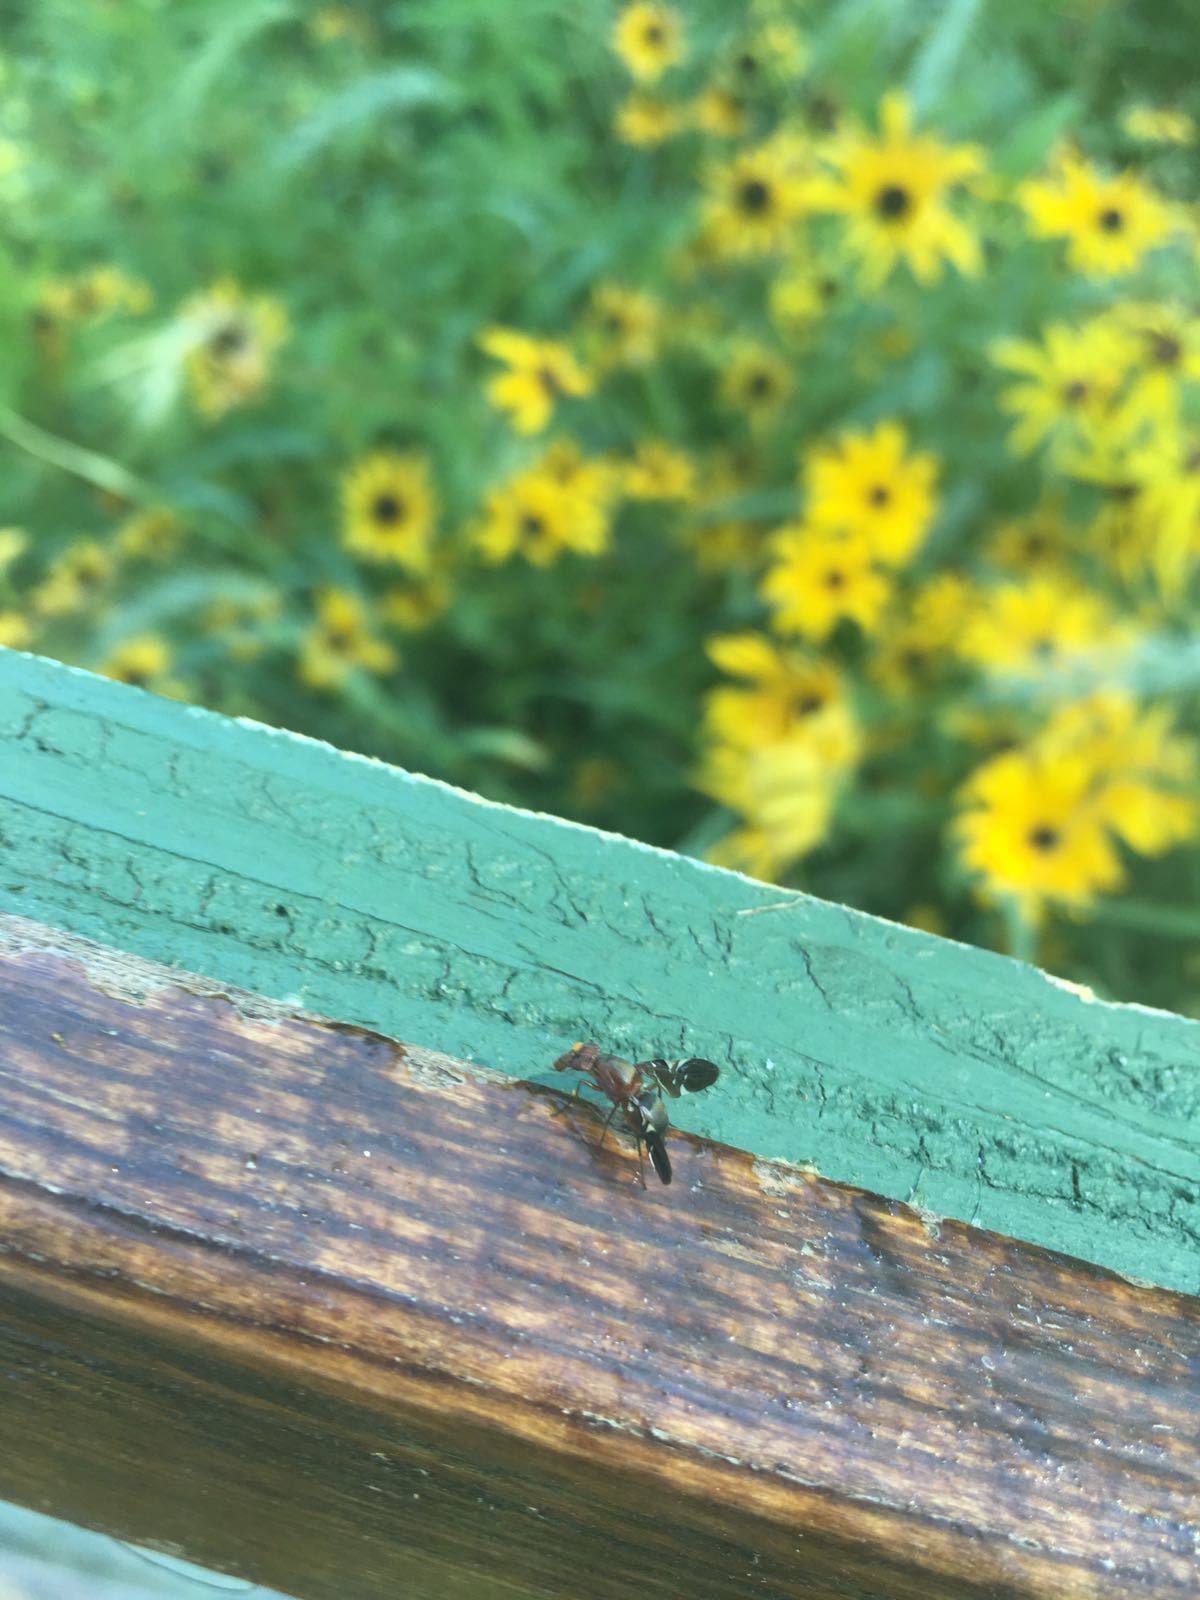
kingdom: Animalia
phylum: Arthropoda
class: Insecta
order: Diptera
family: Ulidiidae
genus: Delphinia
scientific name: Delphinia picta
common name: Common picture-winged fly
